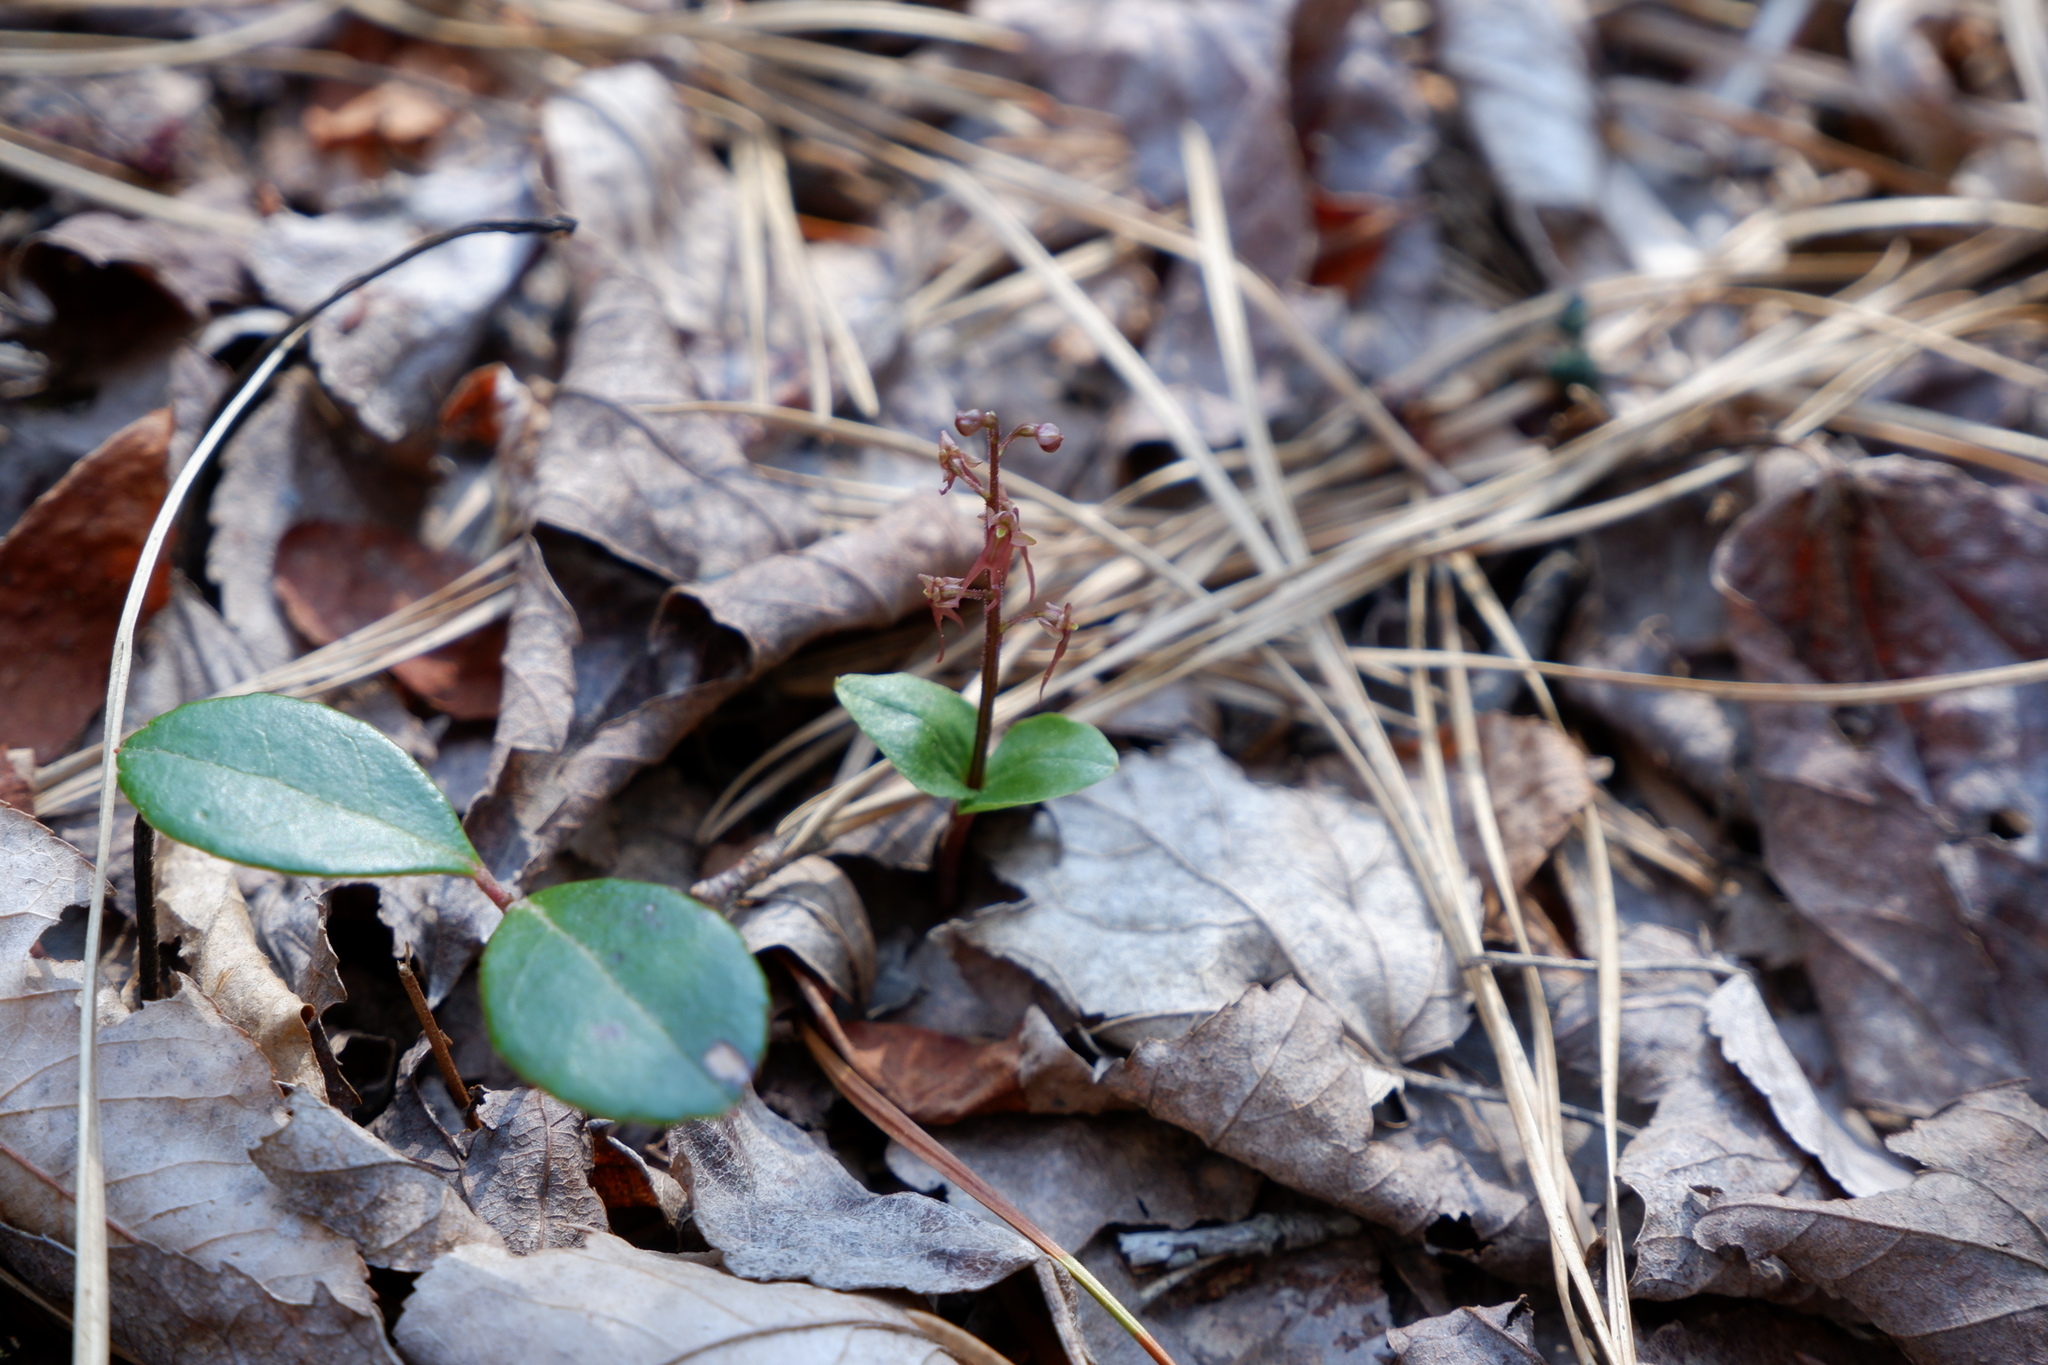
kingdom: Plantae
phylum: Tracheophyta
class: Liliopsida
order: Asparagales
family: Orchidaceae
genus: Neottia
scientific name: Neottia bifolia
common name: Southern twayblade
